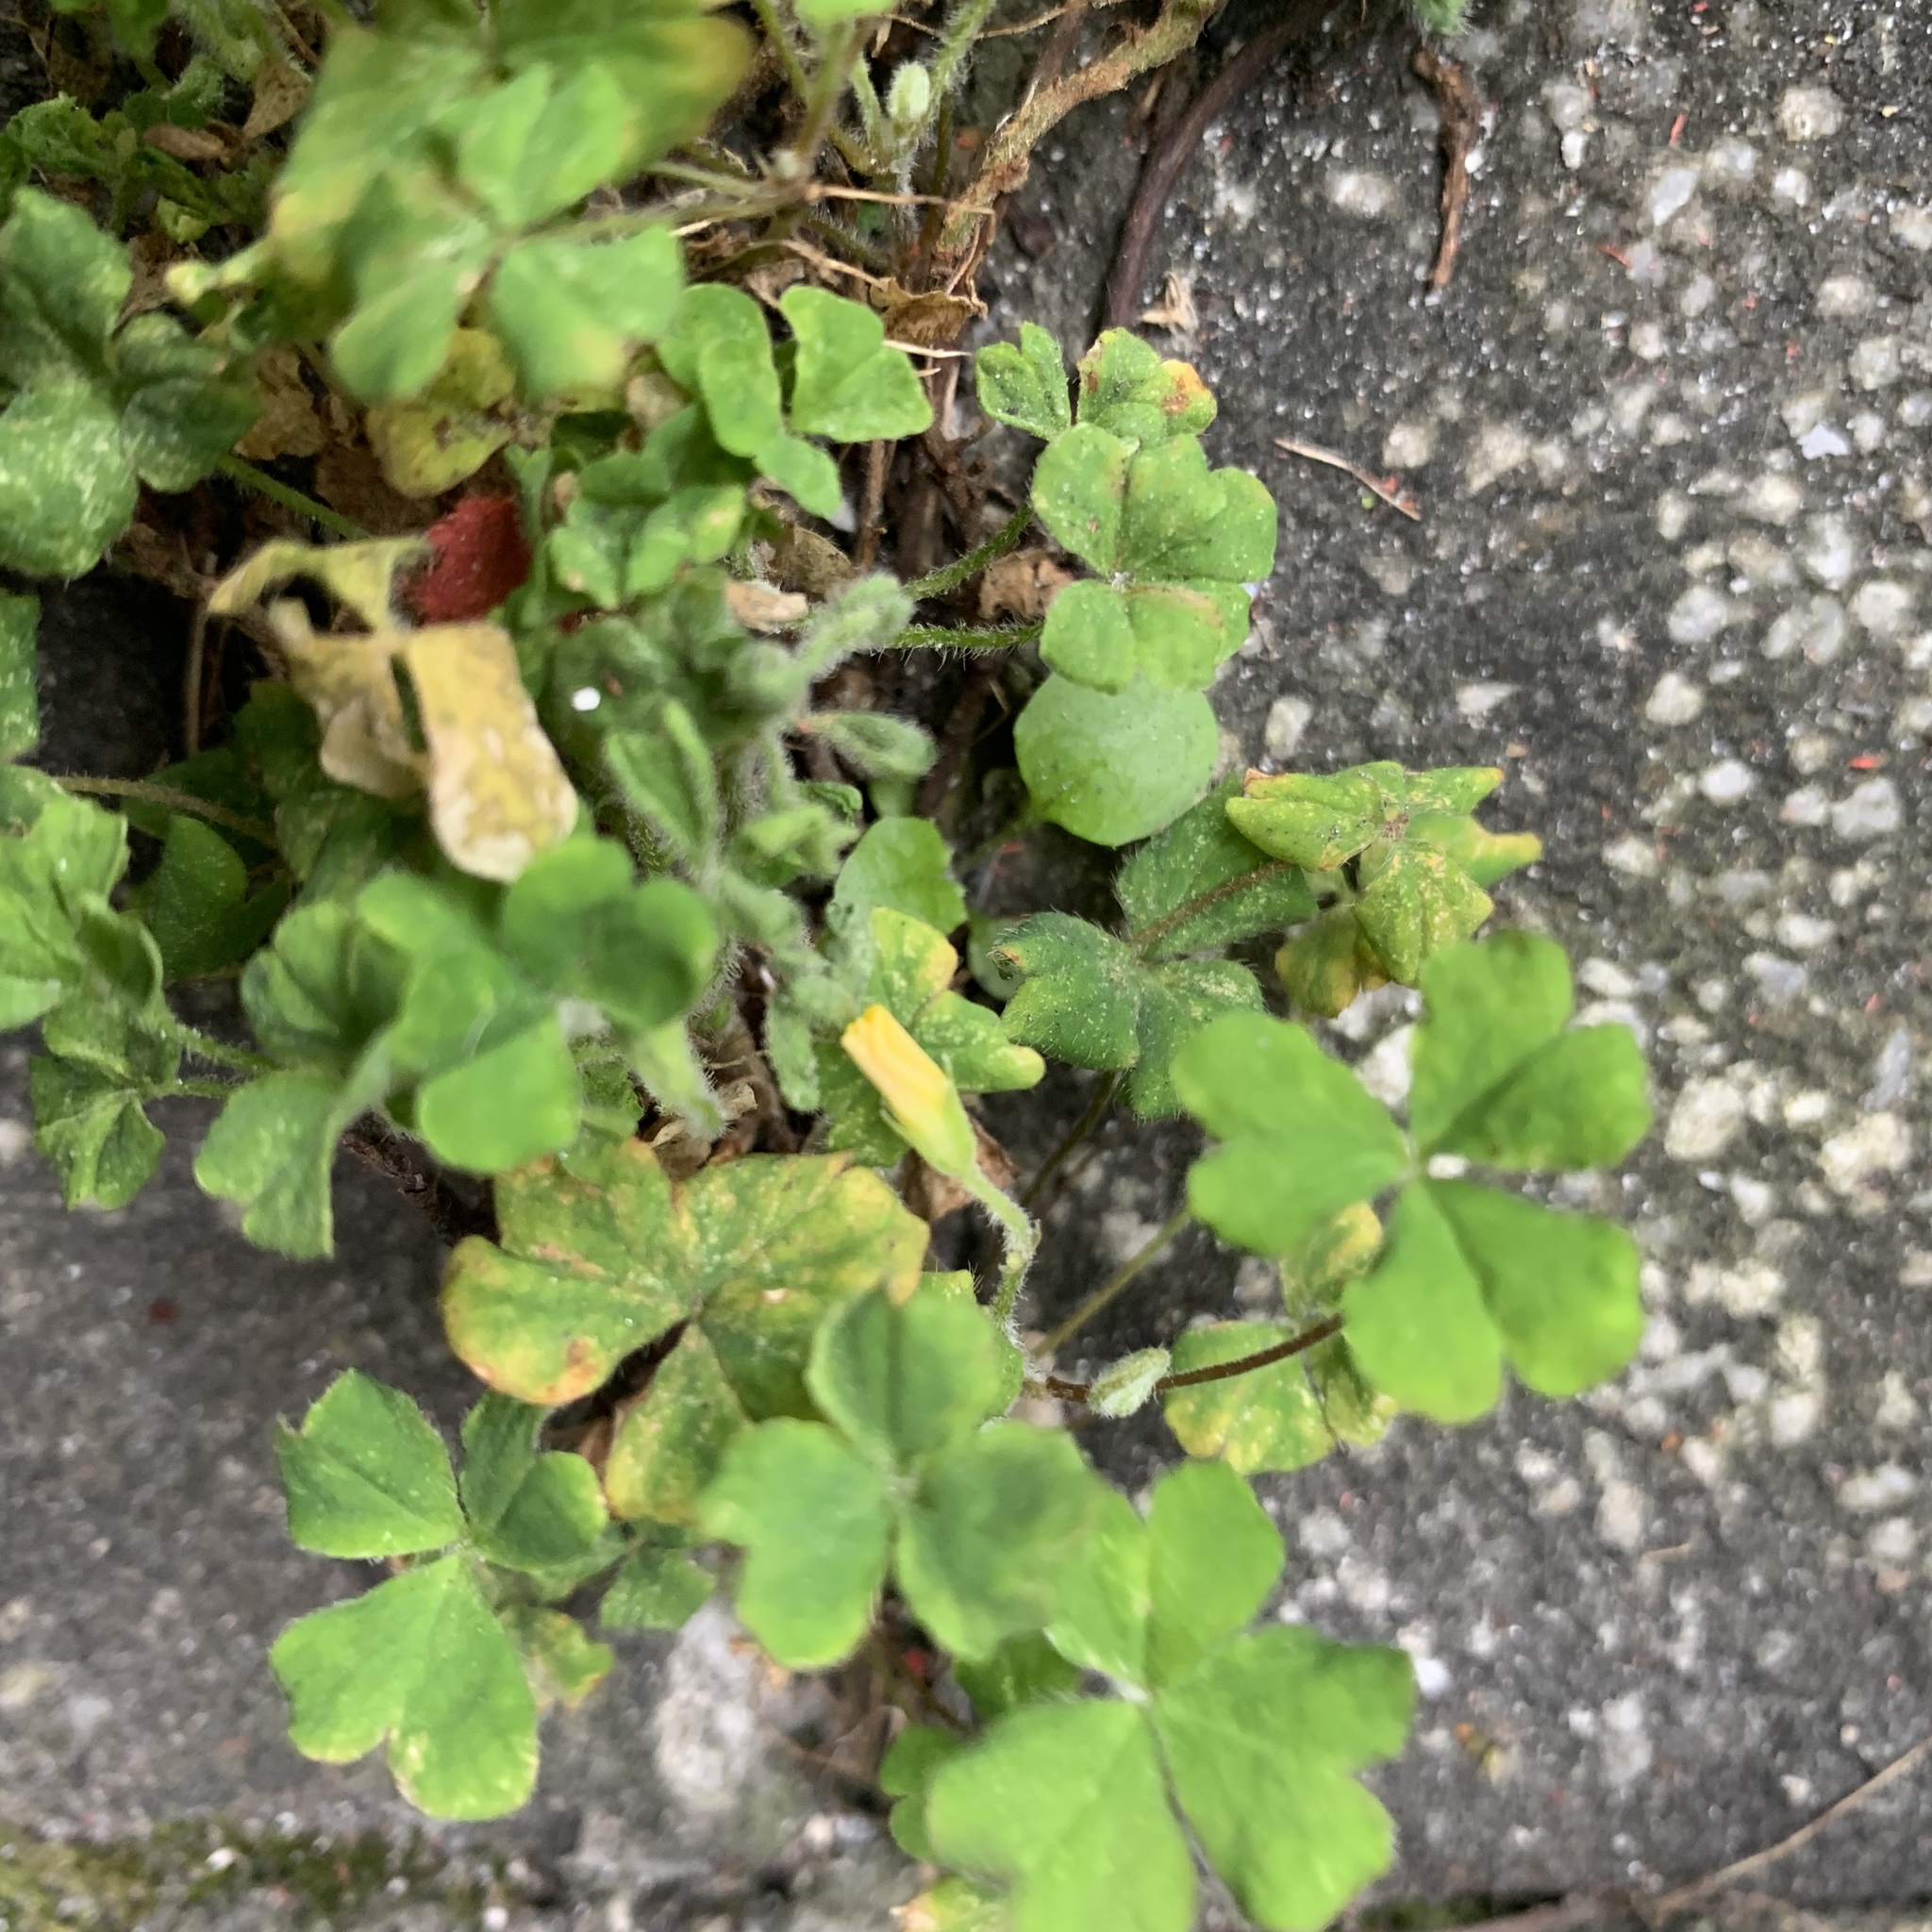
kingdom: Plantae
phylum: Tracheophyta
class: Magnoliopsida
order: Oxalidales
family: Oxalidaceae
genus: Oxalis
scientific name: Oxalis corniculata
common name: Procumbent yellow-sorrel
